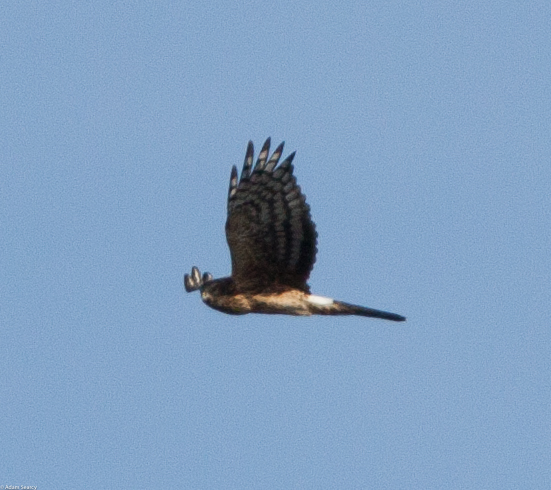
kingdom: Animalia
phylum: Chordata
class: Aves
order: Accipitriformes
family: Accipitridae
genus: Circus
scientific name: Circus cyaneus
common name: Hen harrier
